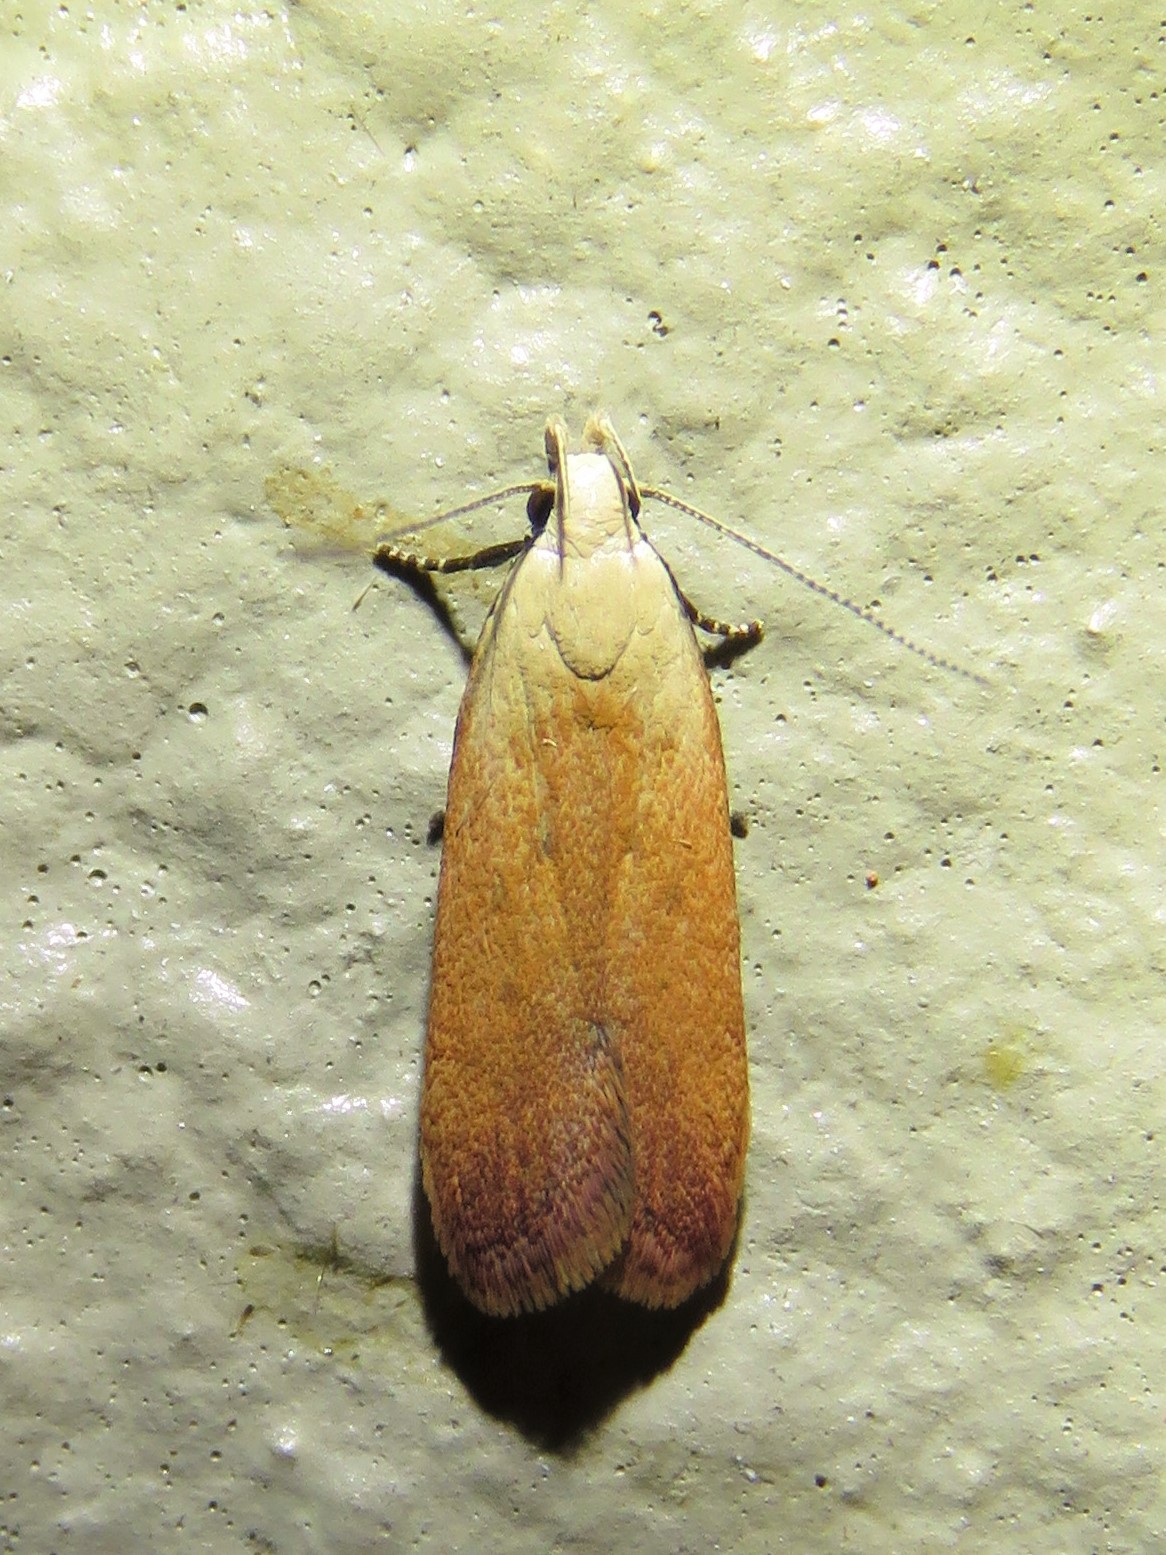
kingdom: Animalia
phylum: Arthropoda
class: Insecta
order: Lepidoptera
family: Gelechiidae
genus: Anacampsis
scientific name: Anacampsis fullonella
